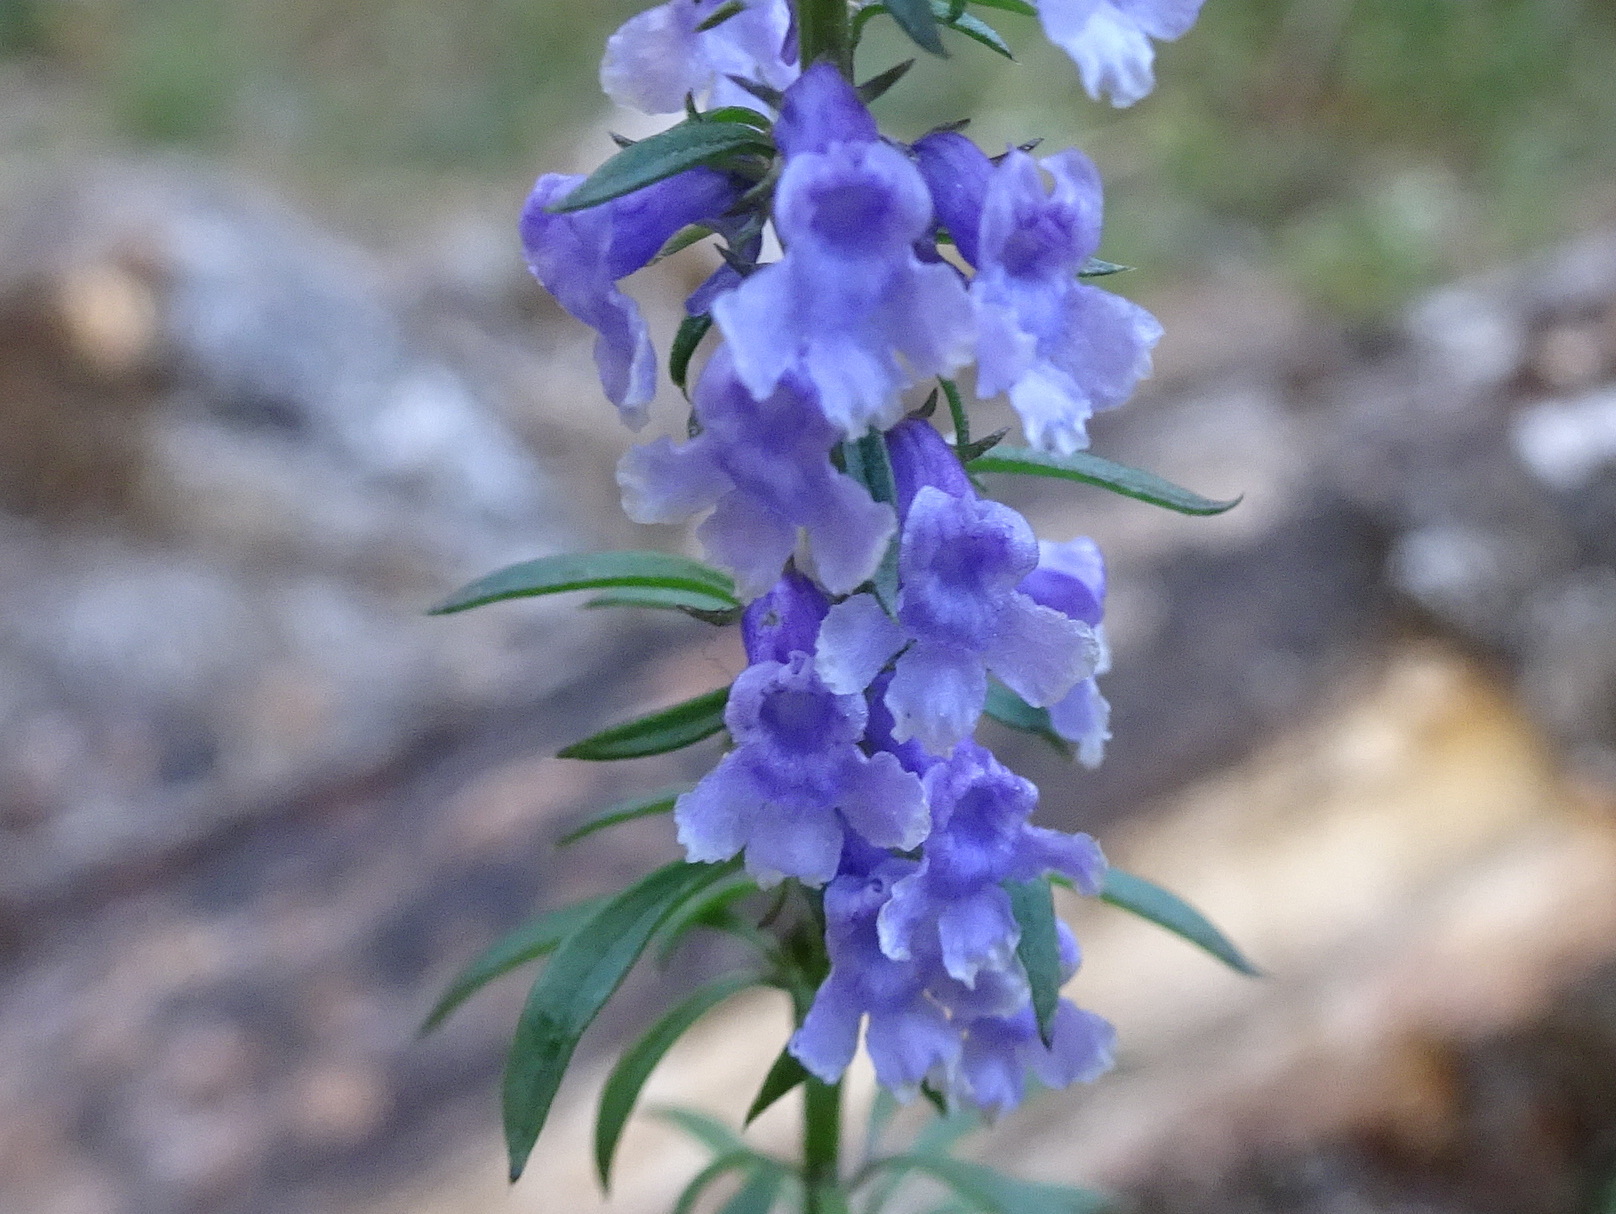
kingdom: Plantae
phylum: Tracheophyta
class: Magnoliopsida
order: Lamiales
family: Plantaginaceae
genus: Anarrhinum
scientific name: Anarrhinum bellidifolium
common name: Daisy-leaved toadflax
